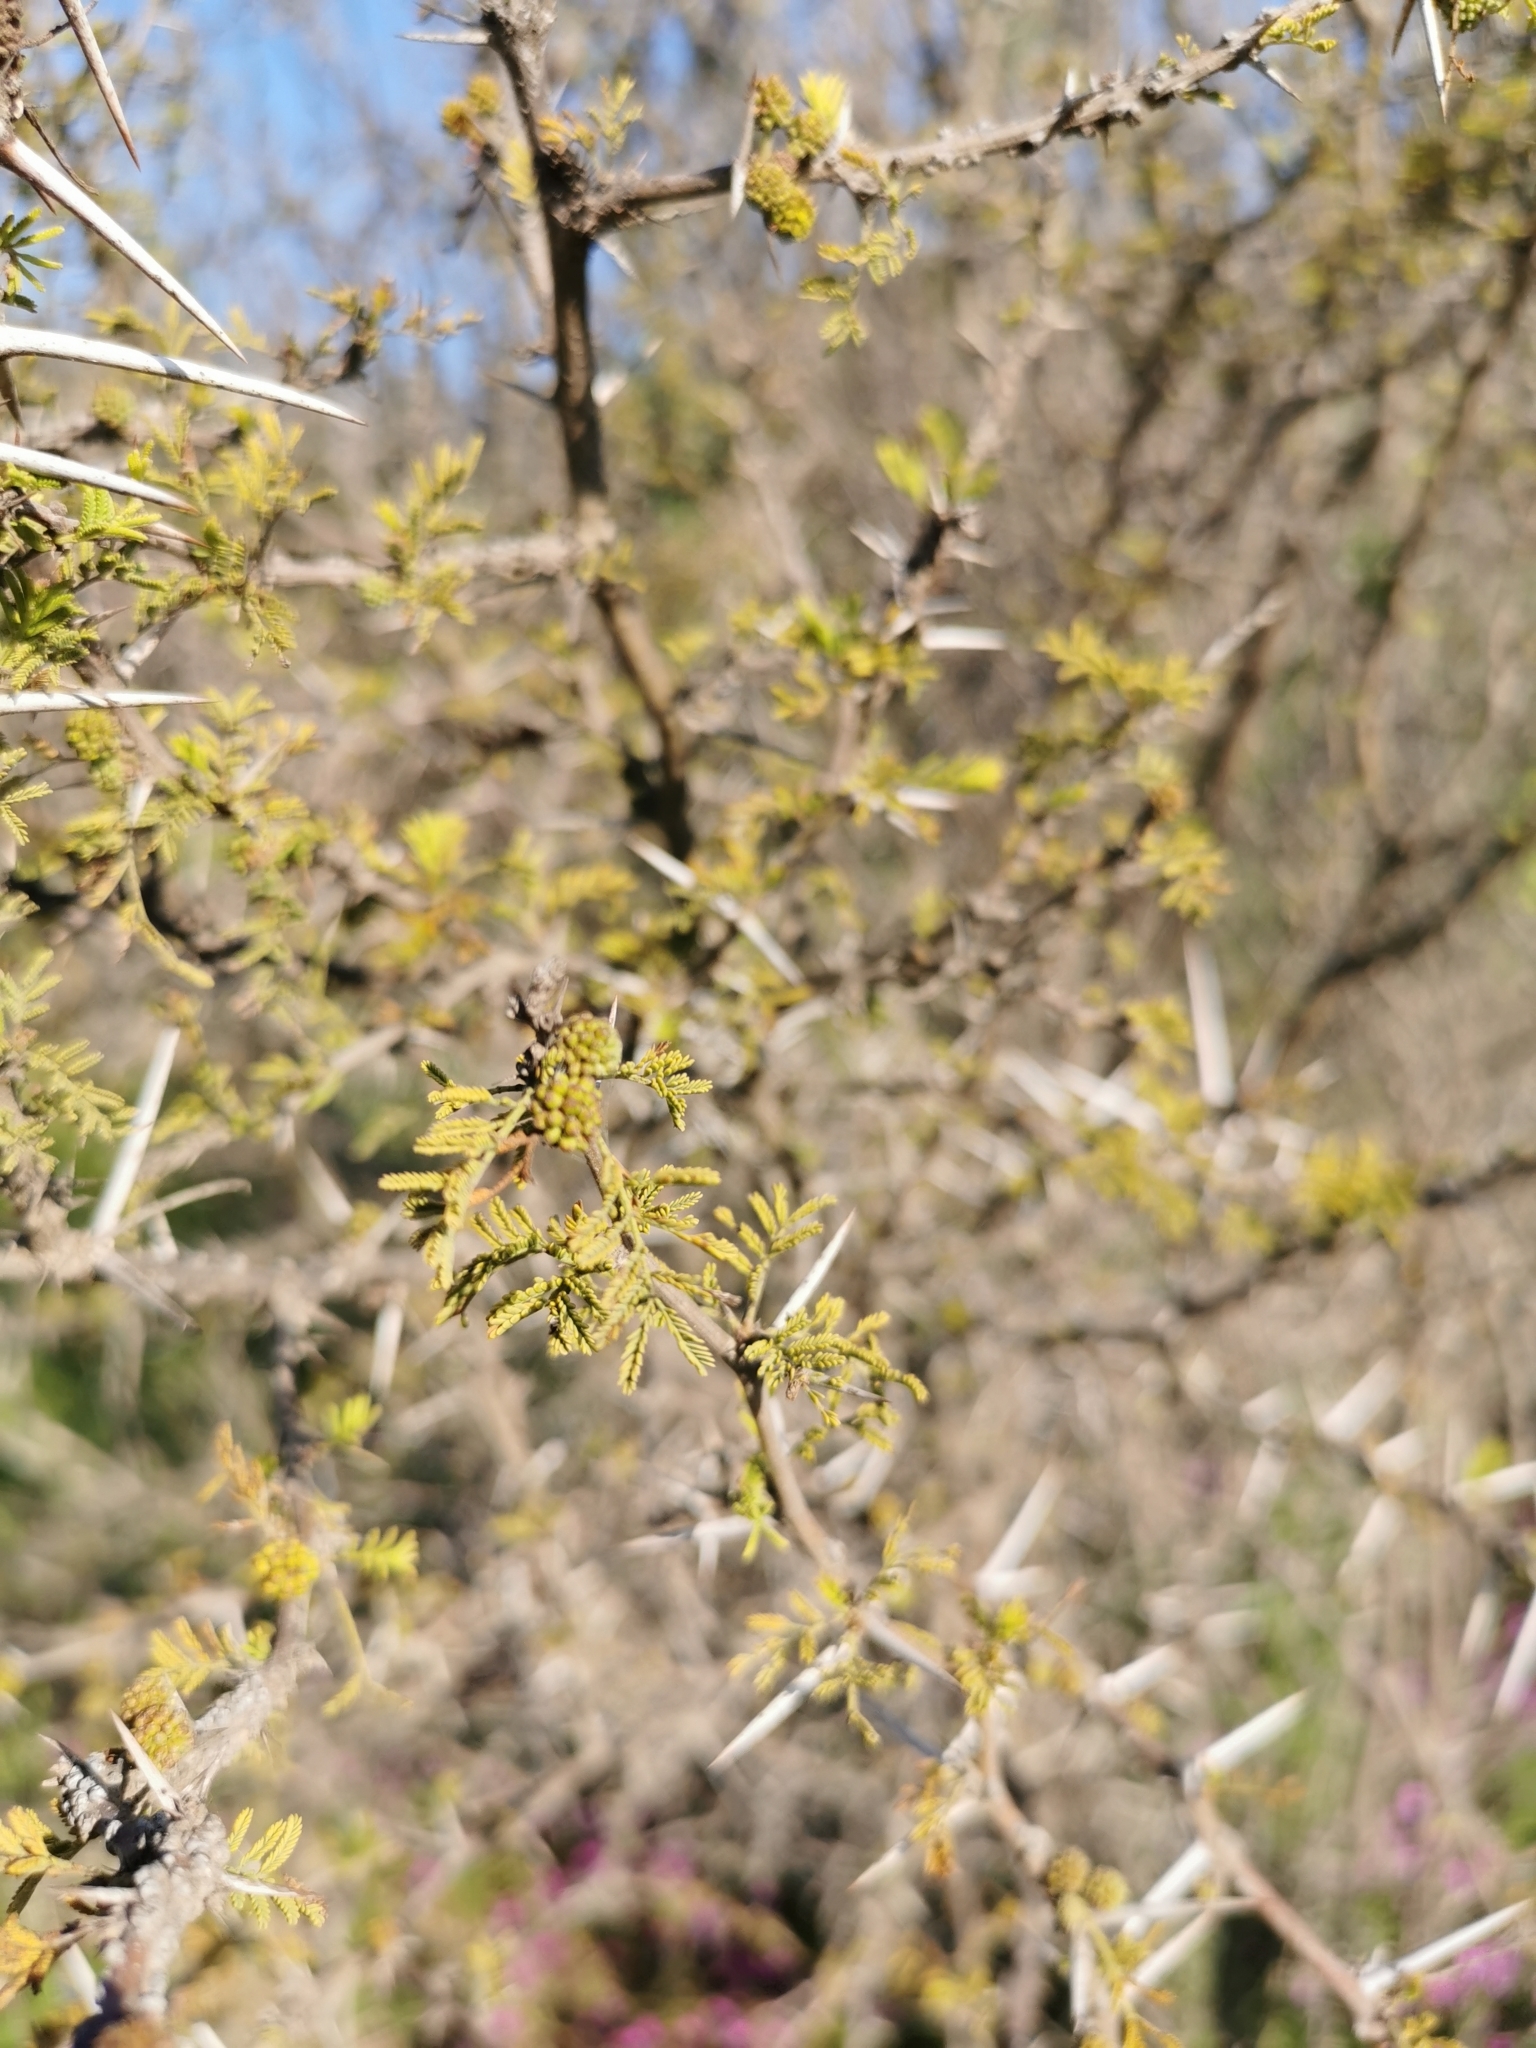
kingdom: Plantae
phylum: Tracheophyta
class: Magnoliopsida
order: Fabales
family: Fabaceae
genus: Vachellia
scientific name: Vachellia caven
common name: Roman cassie
